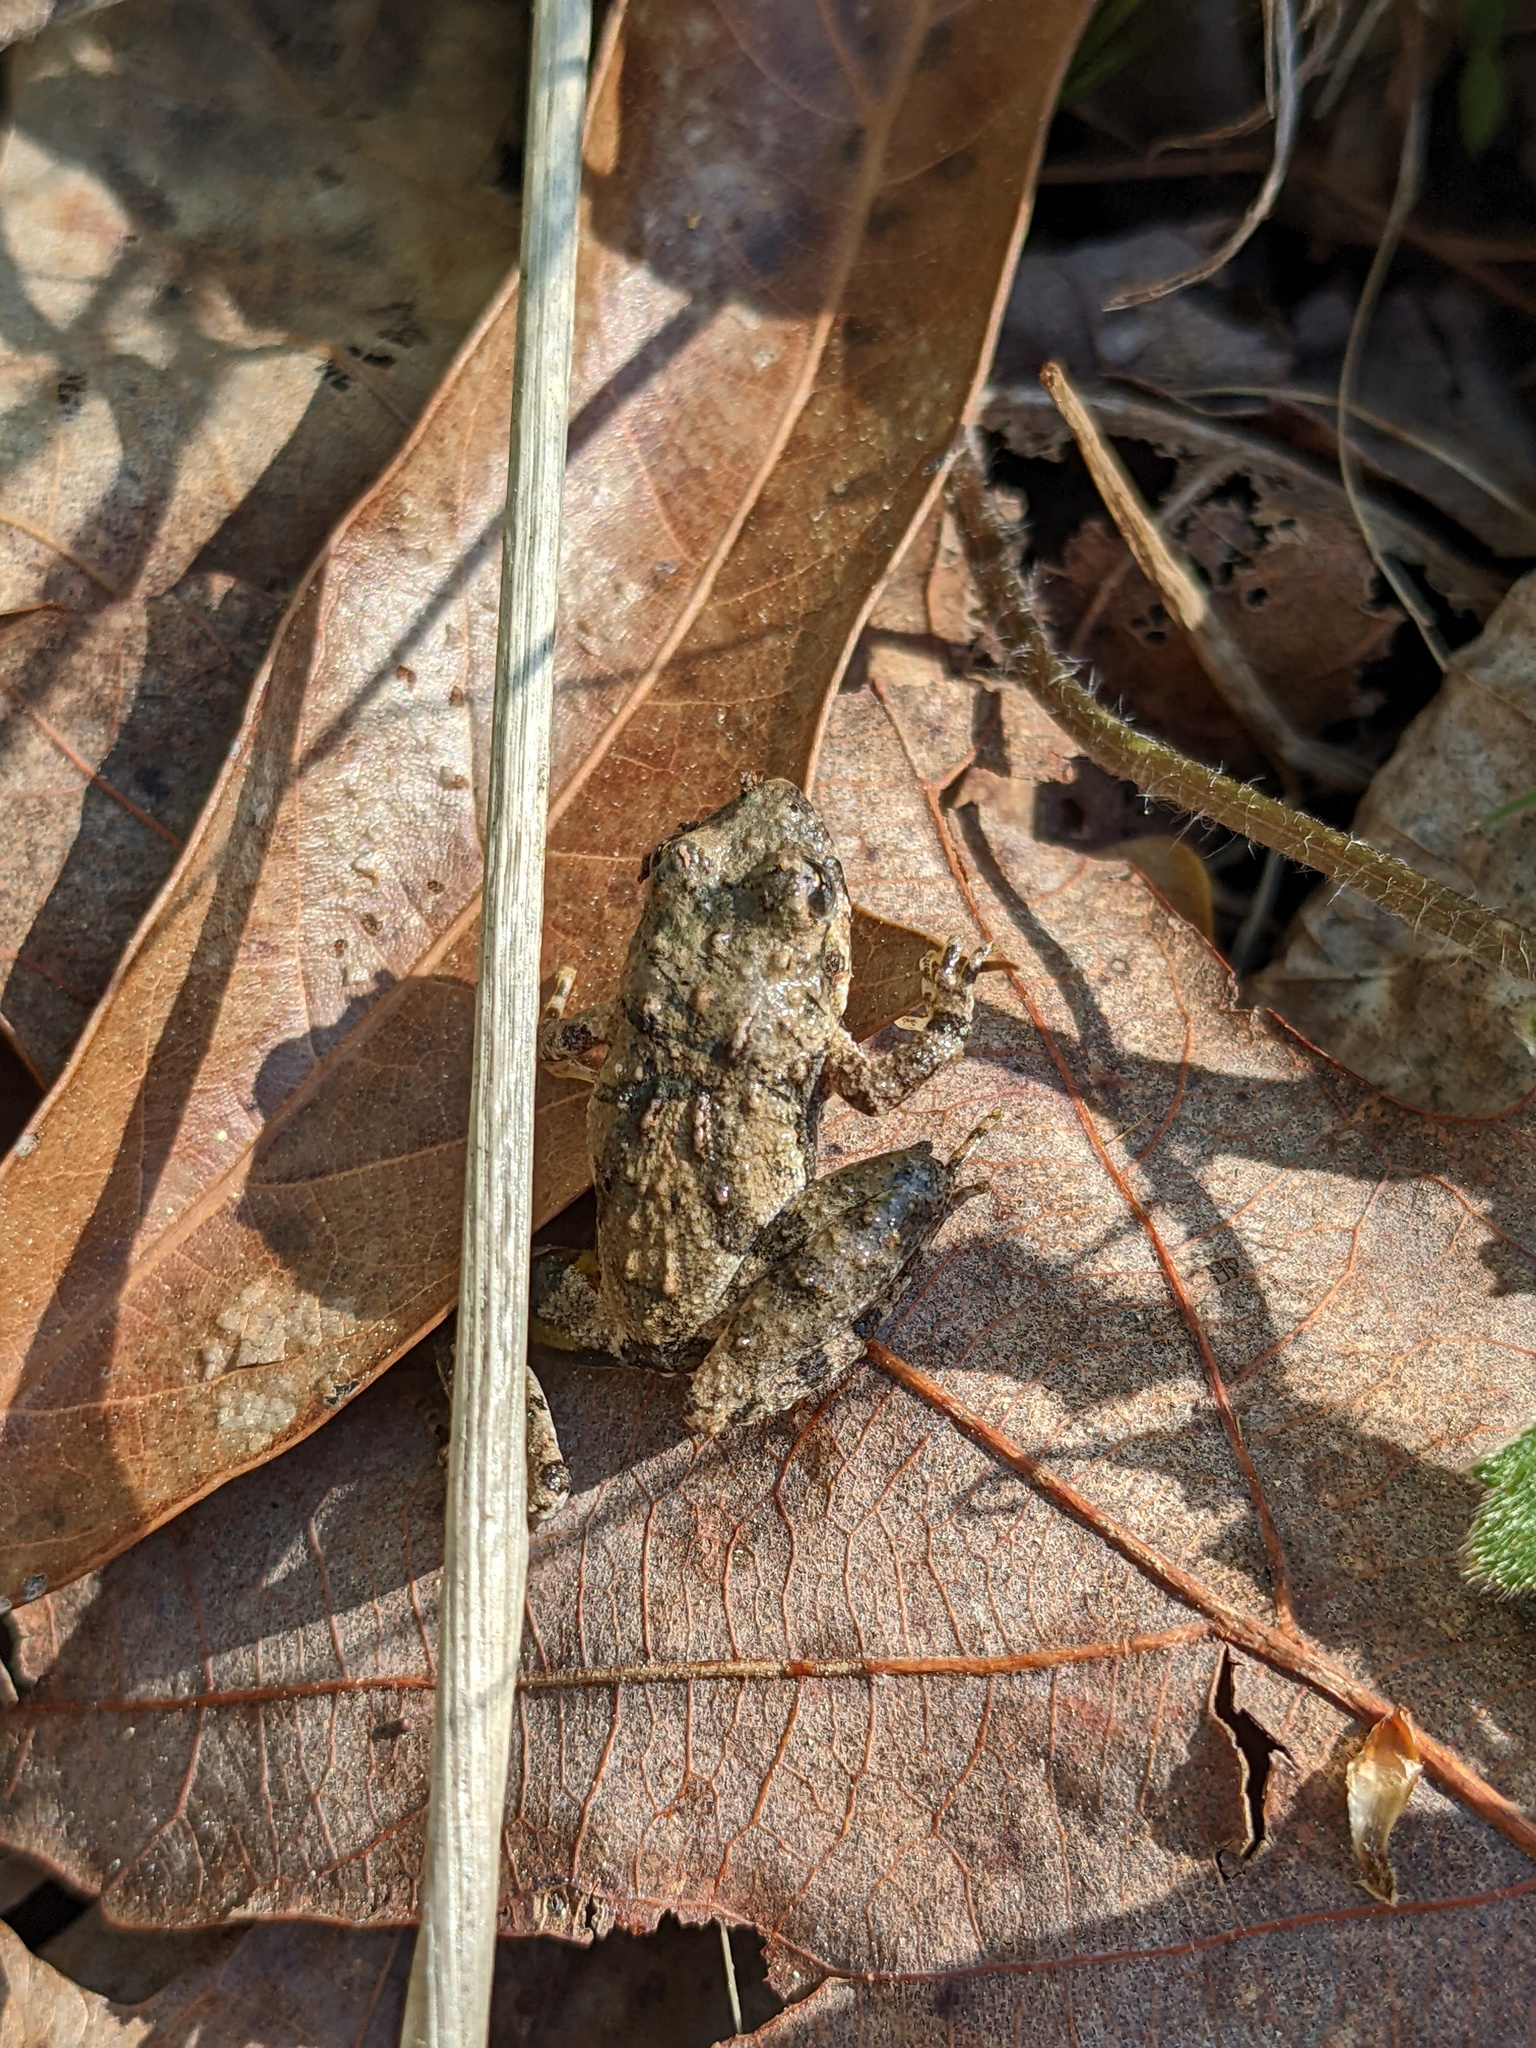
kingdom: Animalia
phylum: Chordata
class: Amphibia
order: Anura
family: Hylidae
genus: Acris
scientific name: Acris crepitans
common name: Northern cricket frog
